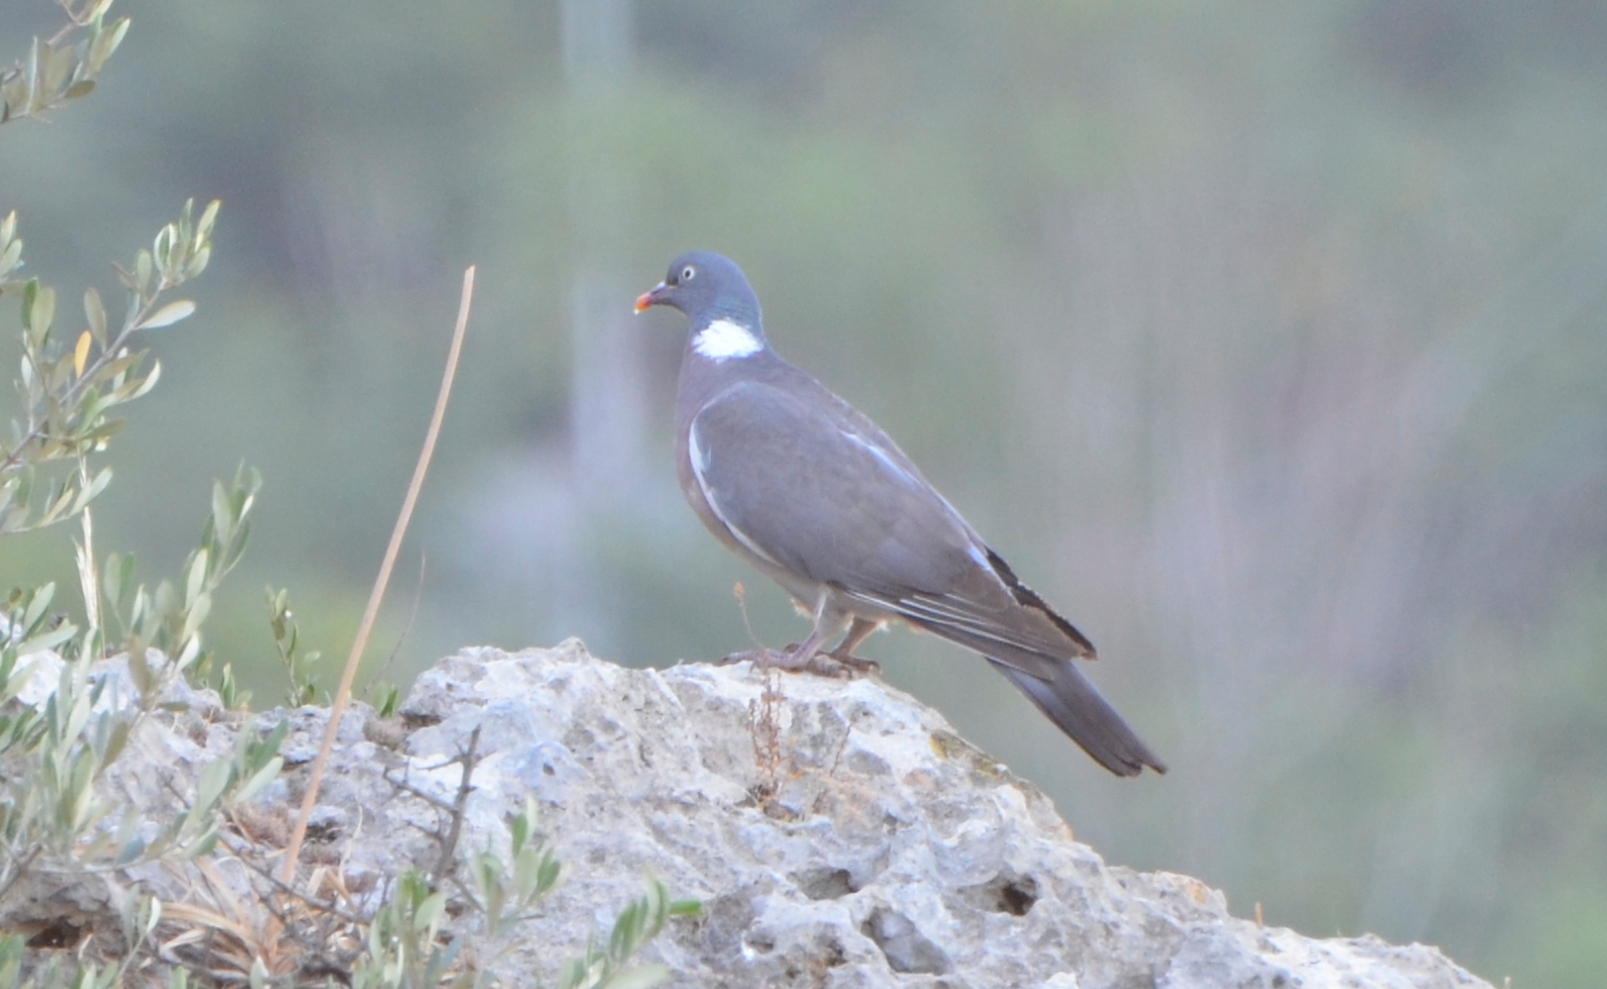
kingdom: Animalia
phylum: Chordata
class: Aves
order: Columbiformes
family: Columbidae
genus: Columba
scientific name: Columba palumbus
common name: Common wood pigeon
